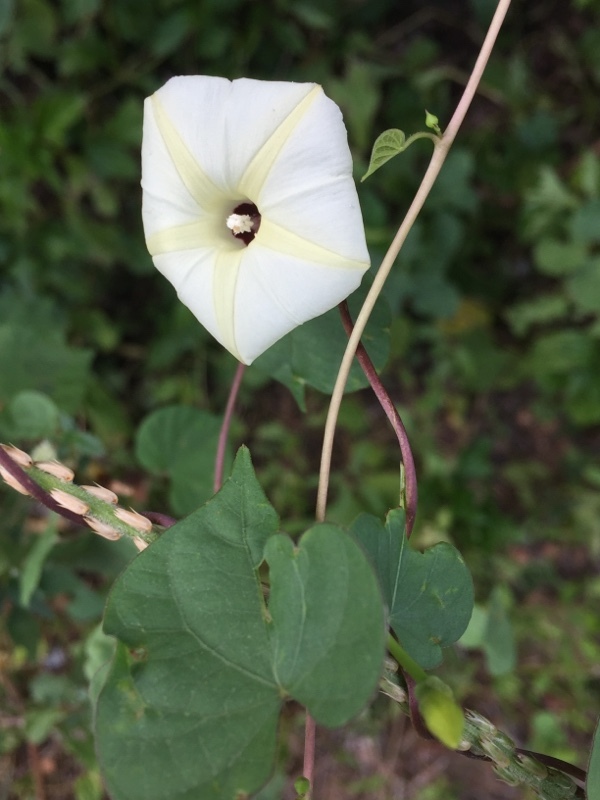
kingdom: Plantae
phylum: Tracheophyta
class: Magnoliopsida
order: Solanales
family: Convolvulaceae
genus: Ipomoea
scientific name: Ipomoea obscura
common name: Obscure morning-glory
